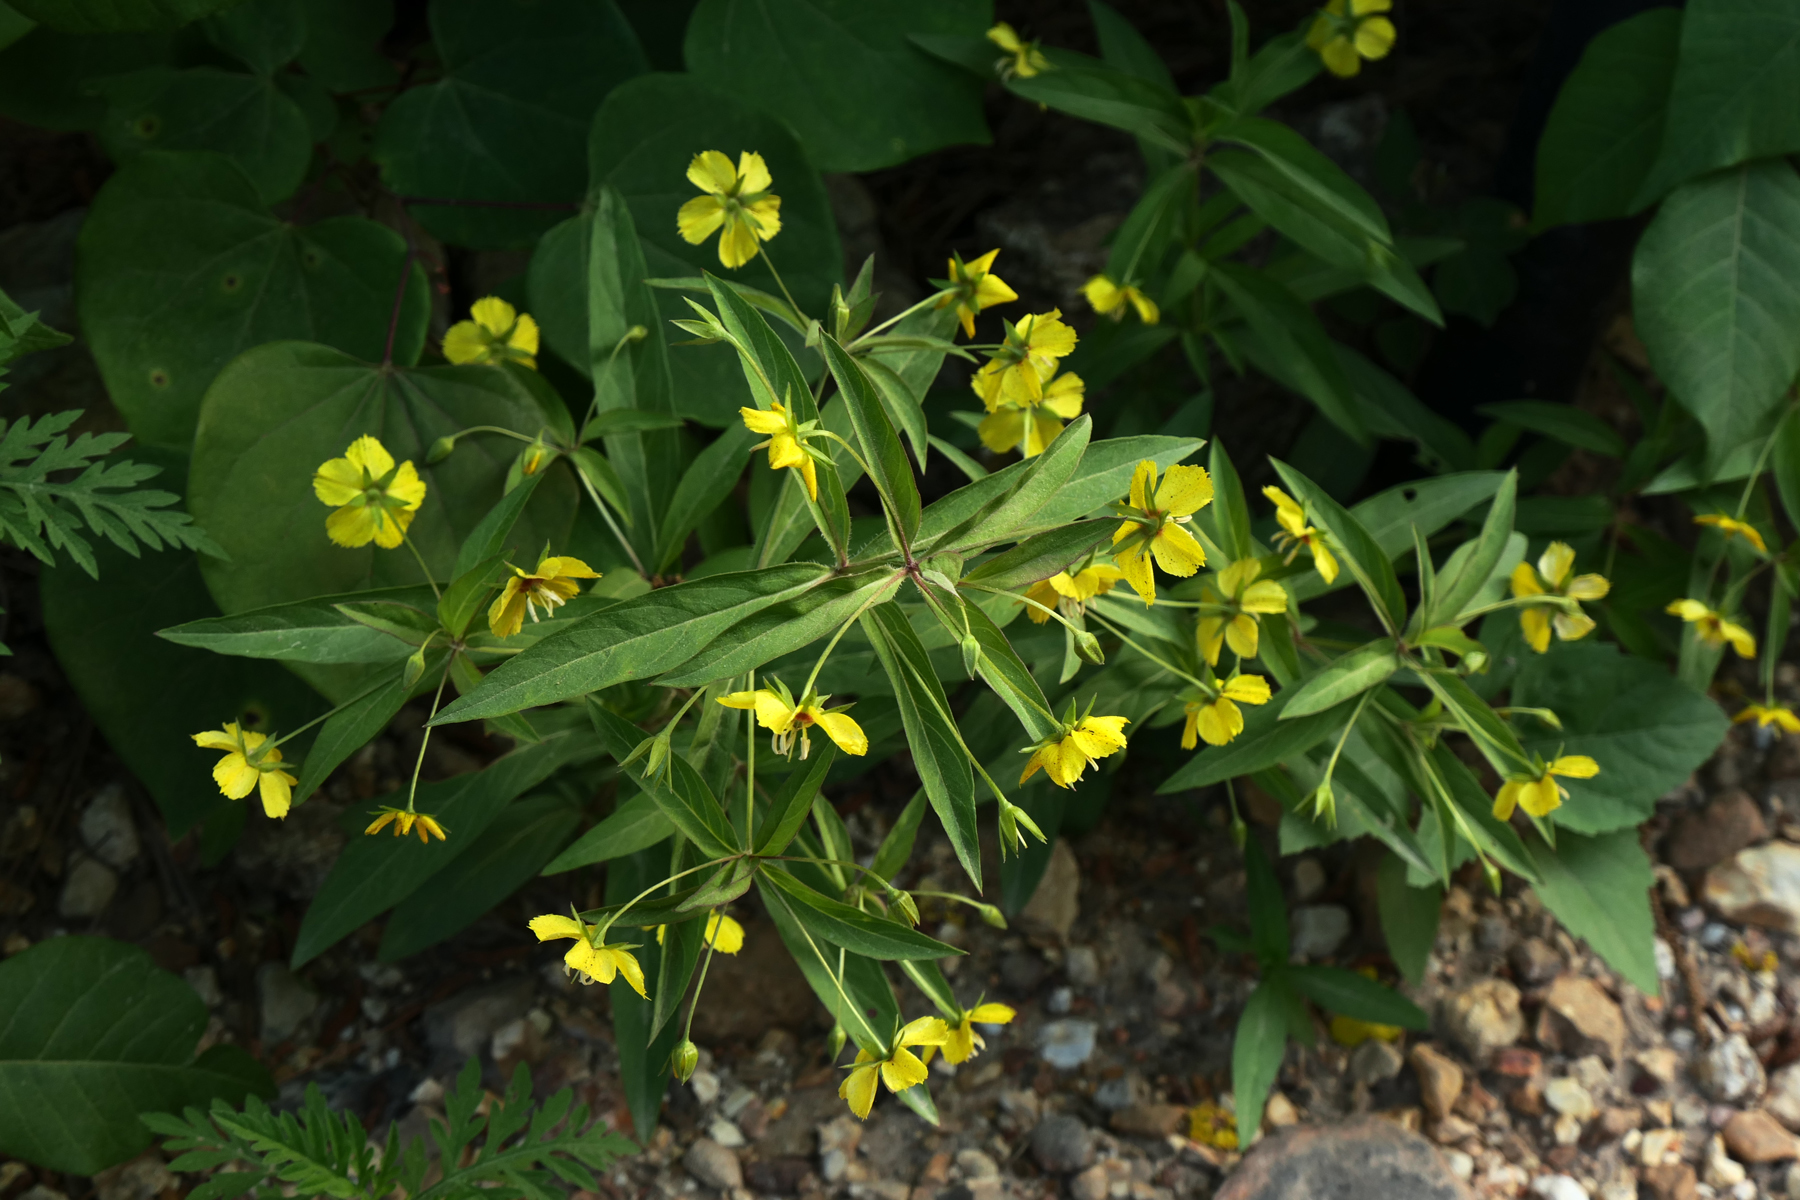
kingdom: Plantae
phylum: Tracheophyta
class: Magnoliopsida
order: Ericales
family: Primulaceae
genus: Lysimachia
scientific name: Lysimachia lanceolata
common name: Lance-leaved loosestrife
